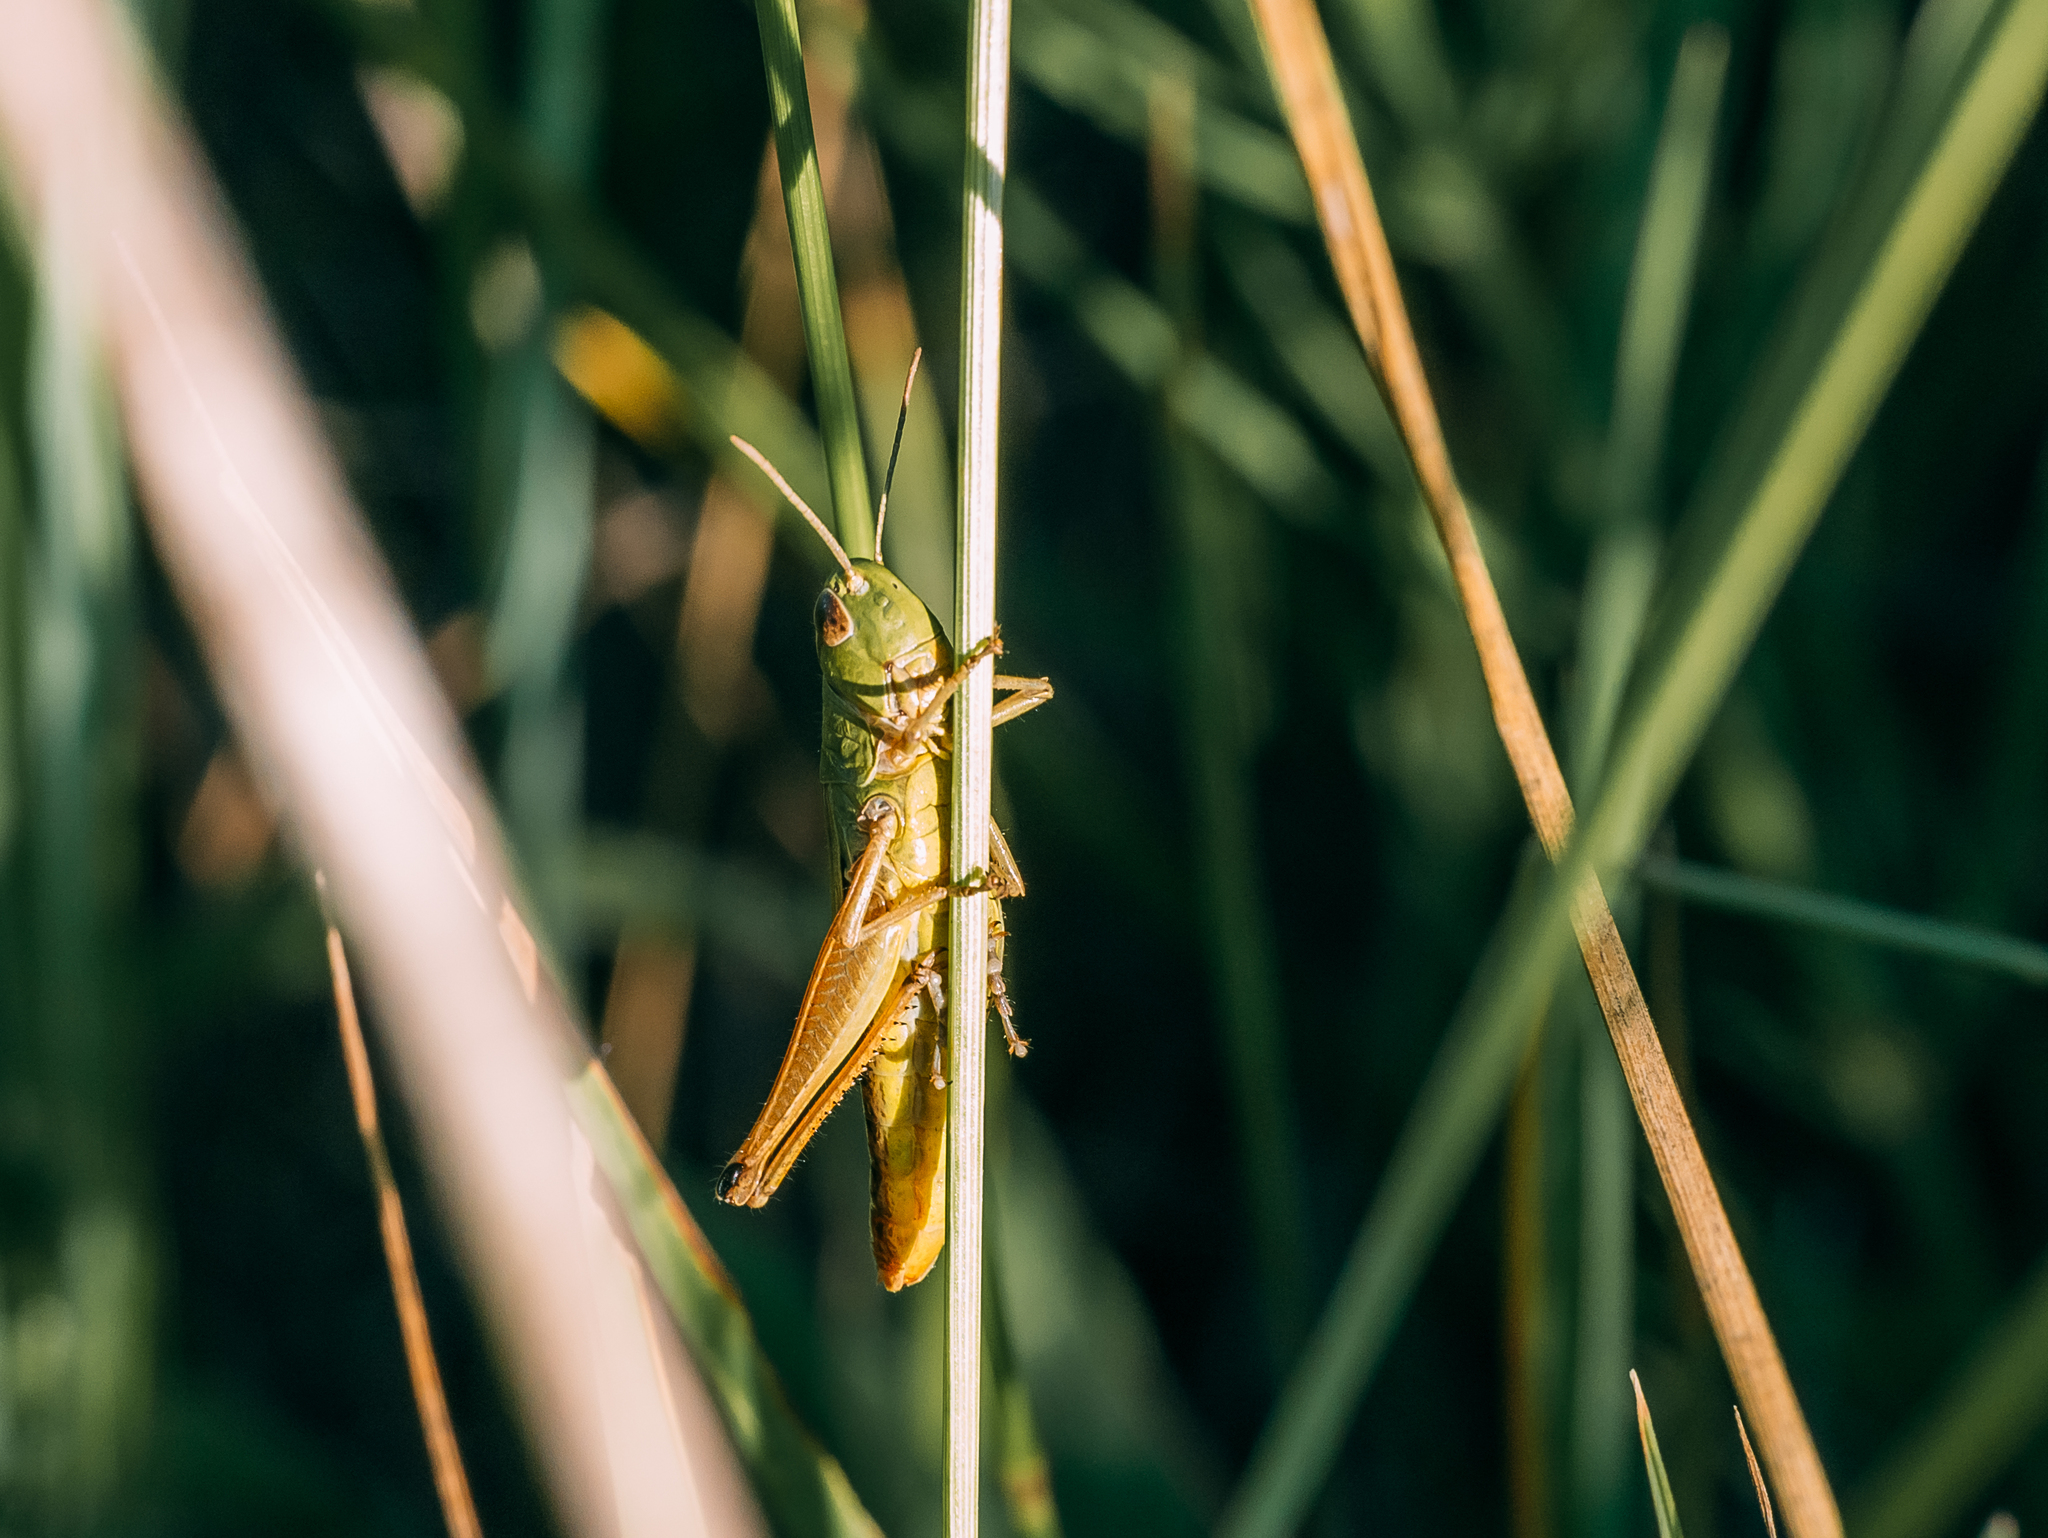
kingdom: Animalia
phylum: Arthropoda
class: Insecta
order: Orthoptera
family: Acrididae
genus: Pseudochorthippus
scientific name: Pseudochorthippus parallelus
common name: Meadow grasshopper
